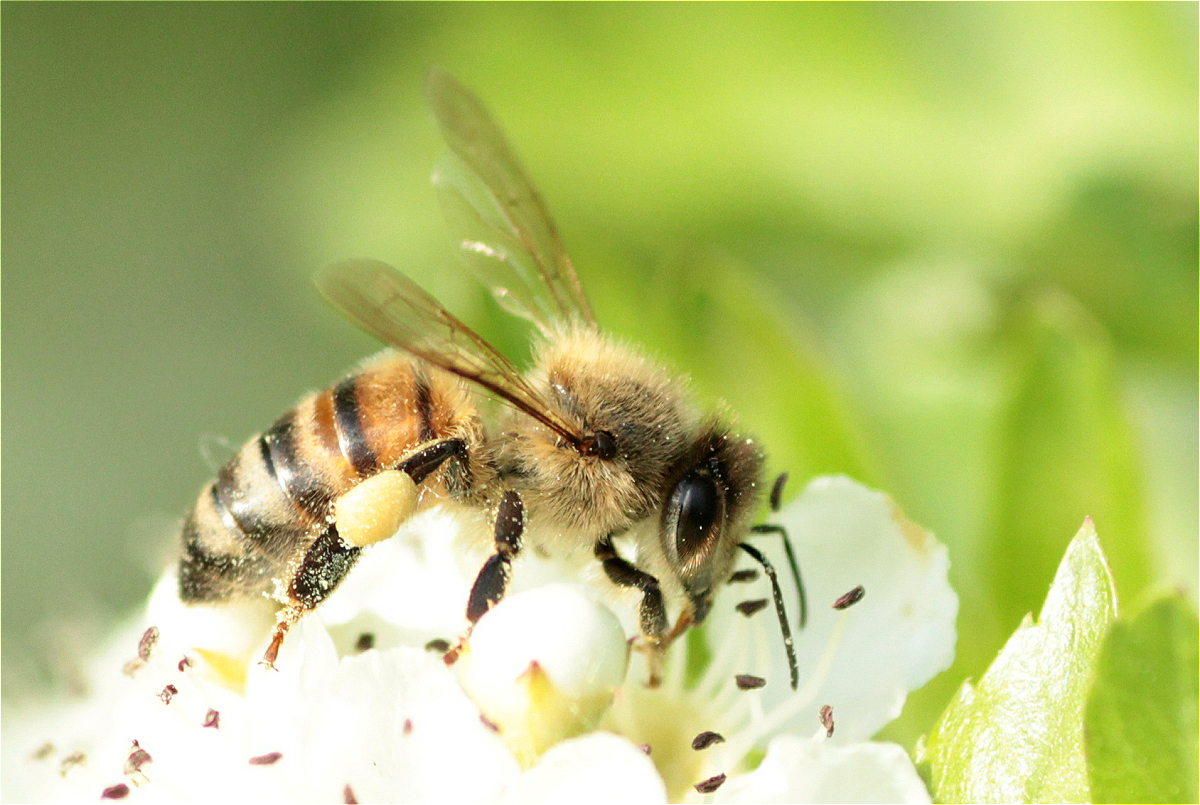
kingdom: Animalia
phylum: Arthropoda
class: Insecta
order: Hymenoptera
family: Apidae
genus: Apis
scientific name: Apis mellifera
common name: Honey bee
